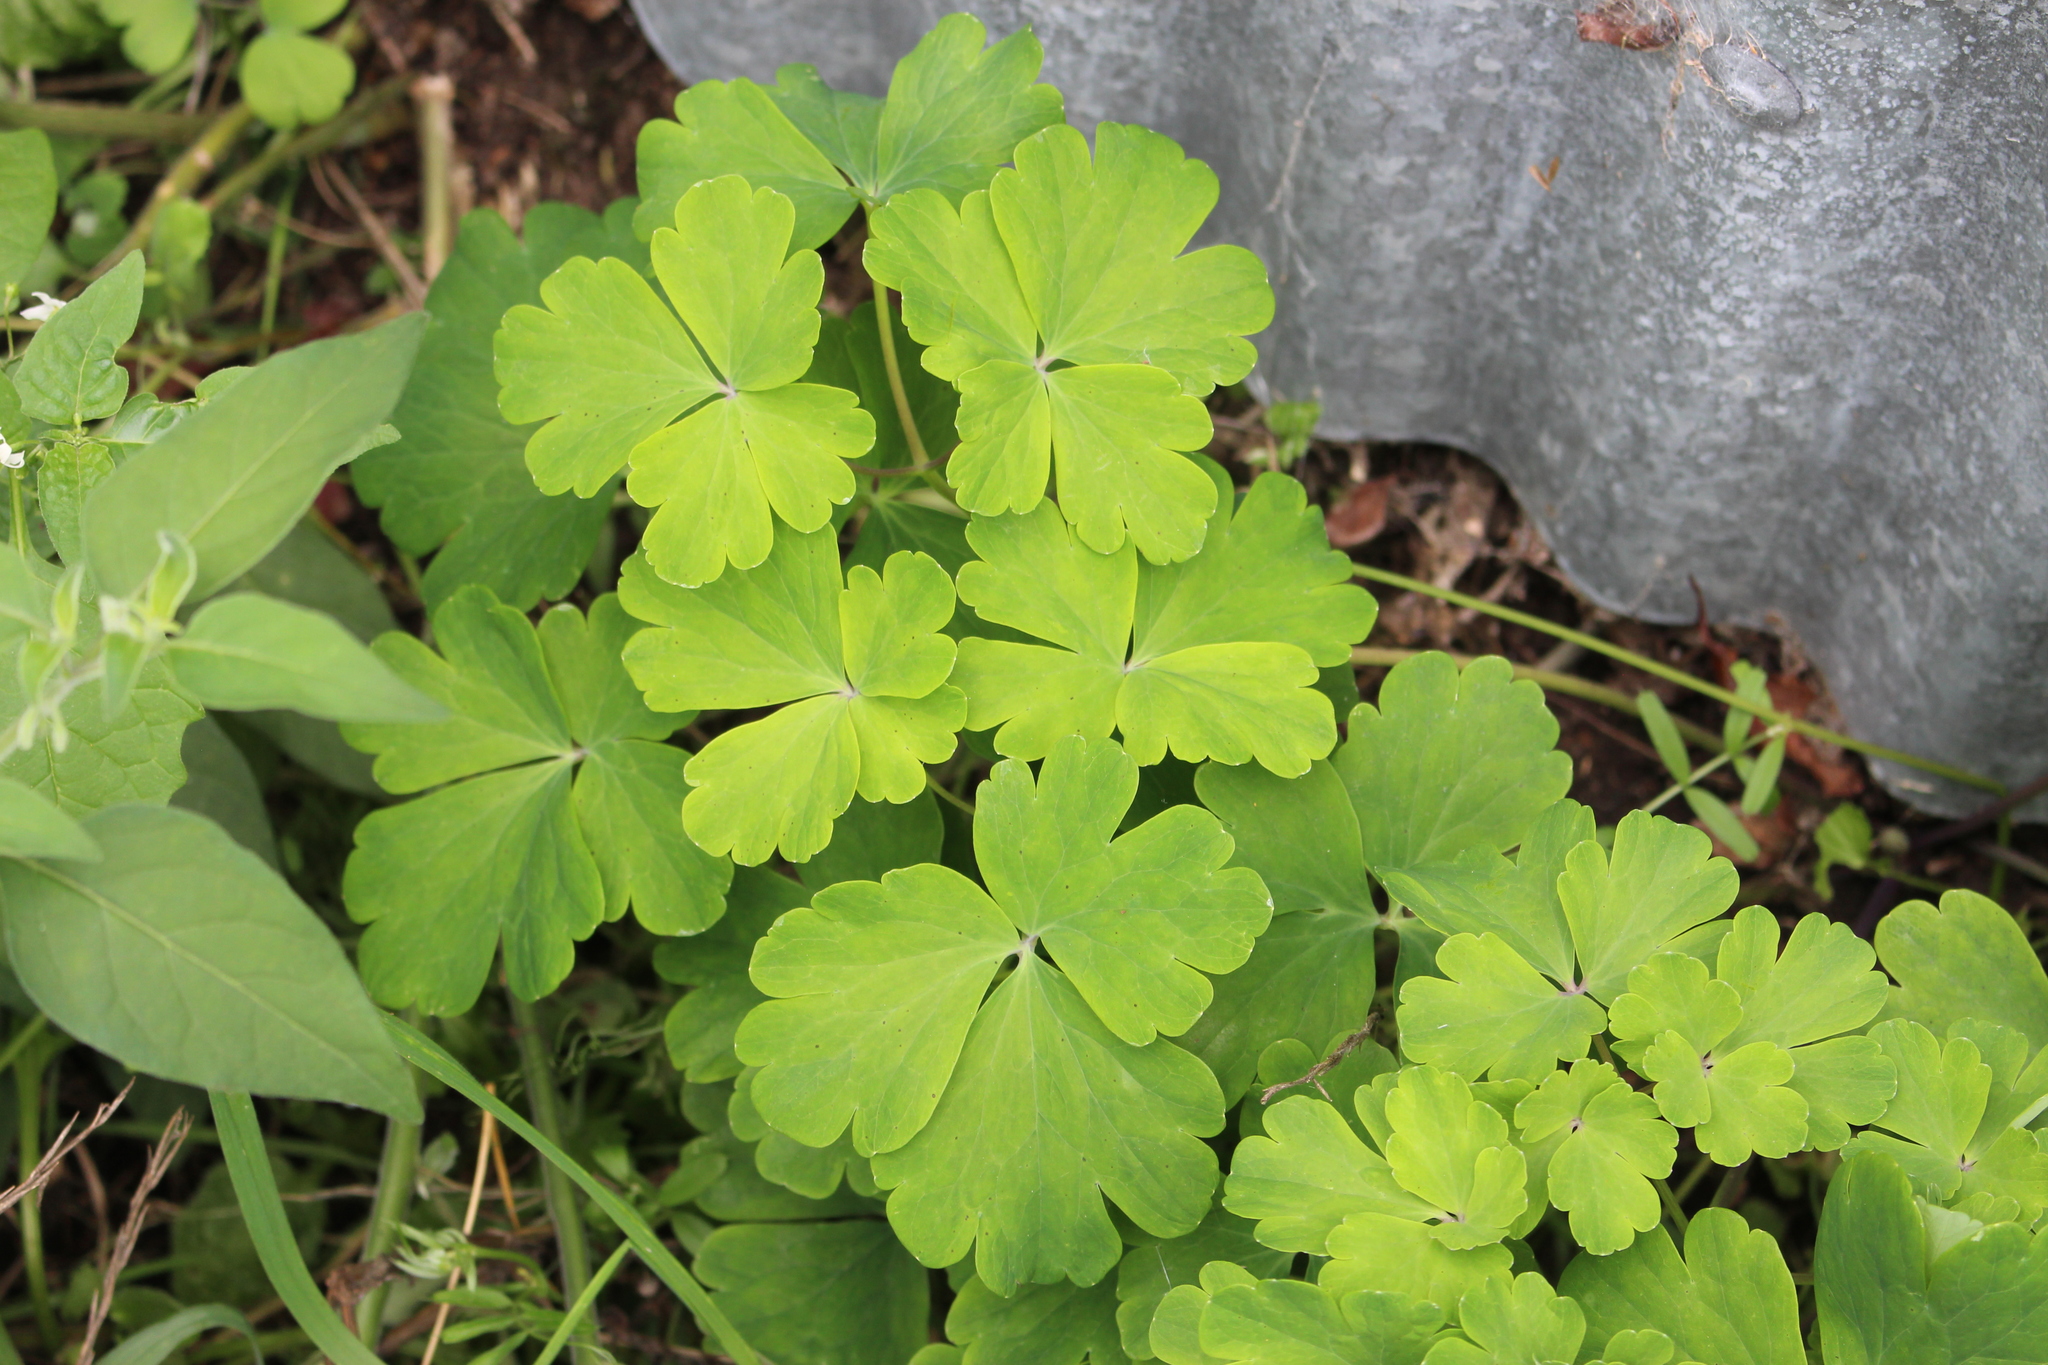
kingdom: Plantae
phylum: Tracheophyta
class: Magnoliopsida
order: Ranunculales
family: Ranunculaceae
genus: Aquilegia
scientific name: Aquilegia vulgaris
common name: Columbine
